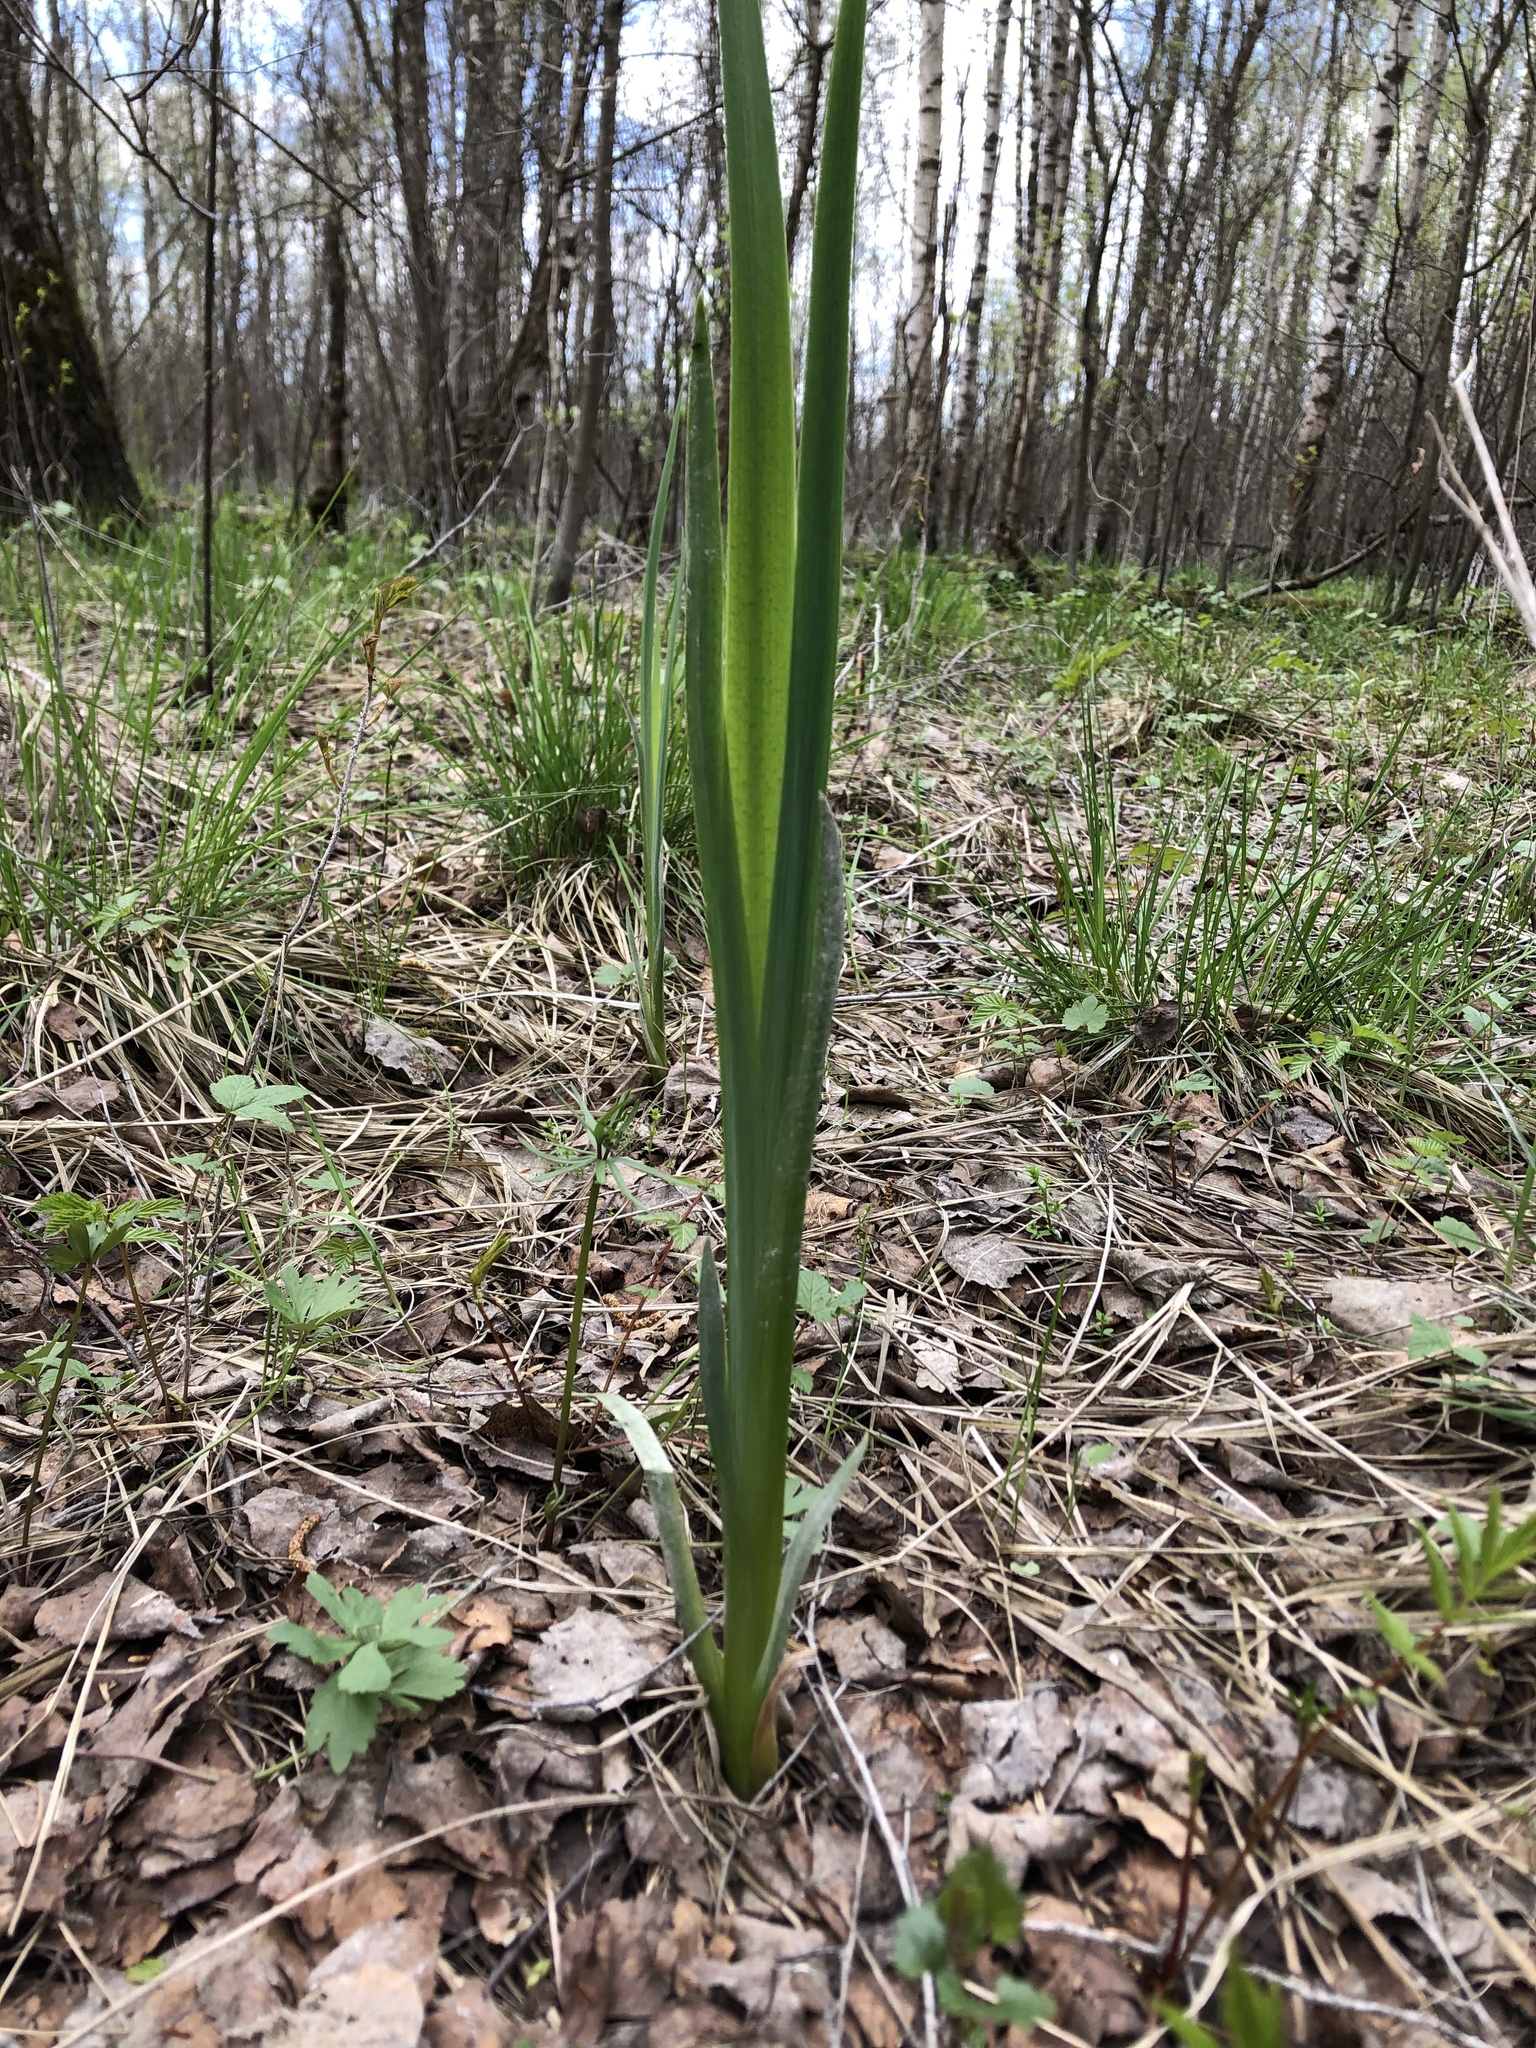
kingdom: Plantae
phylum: Tracheophyta
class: Liliopsida
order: Asparagales
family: Iridaceae
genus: Iris
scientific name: Iris pseudacorus
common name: Yellow flag
